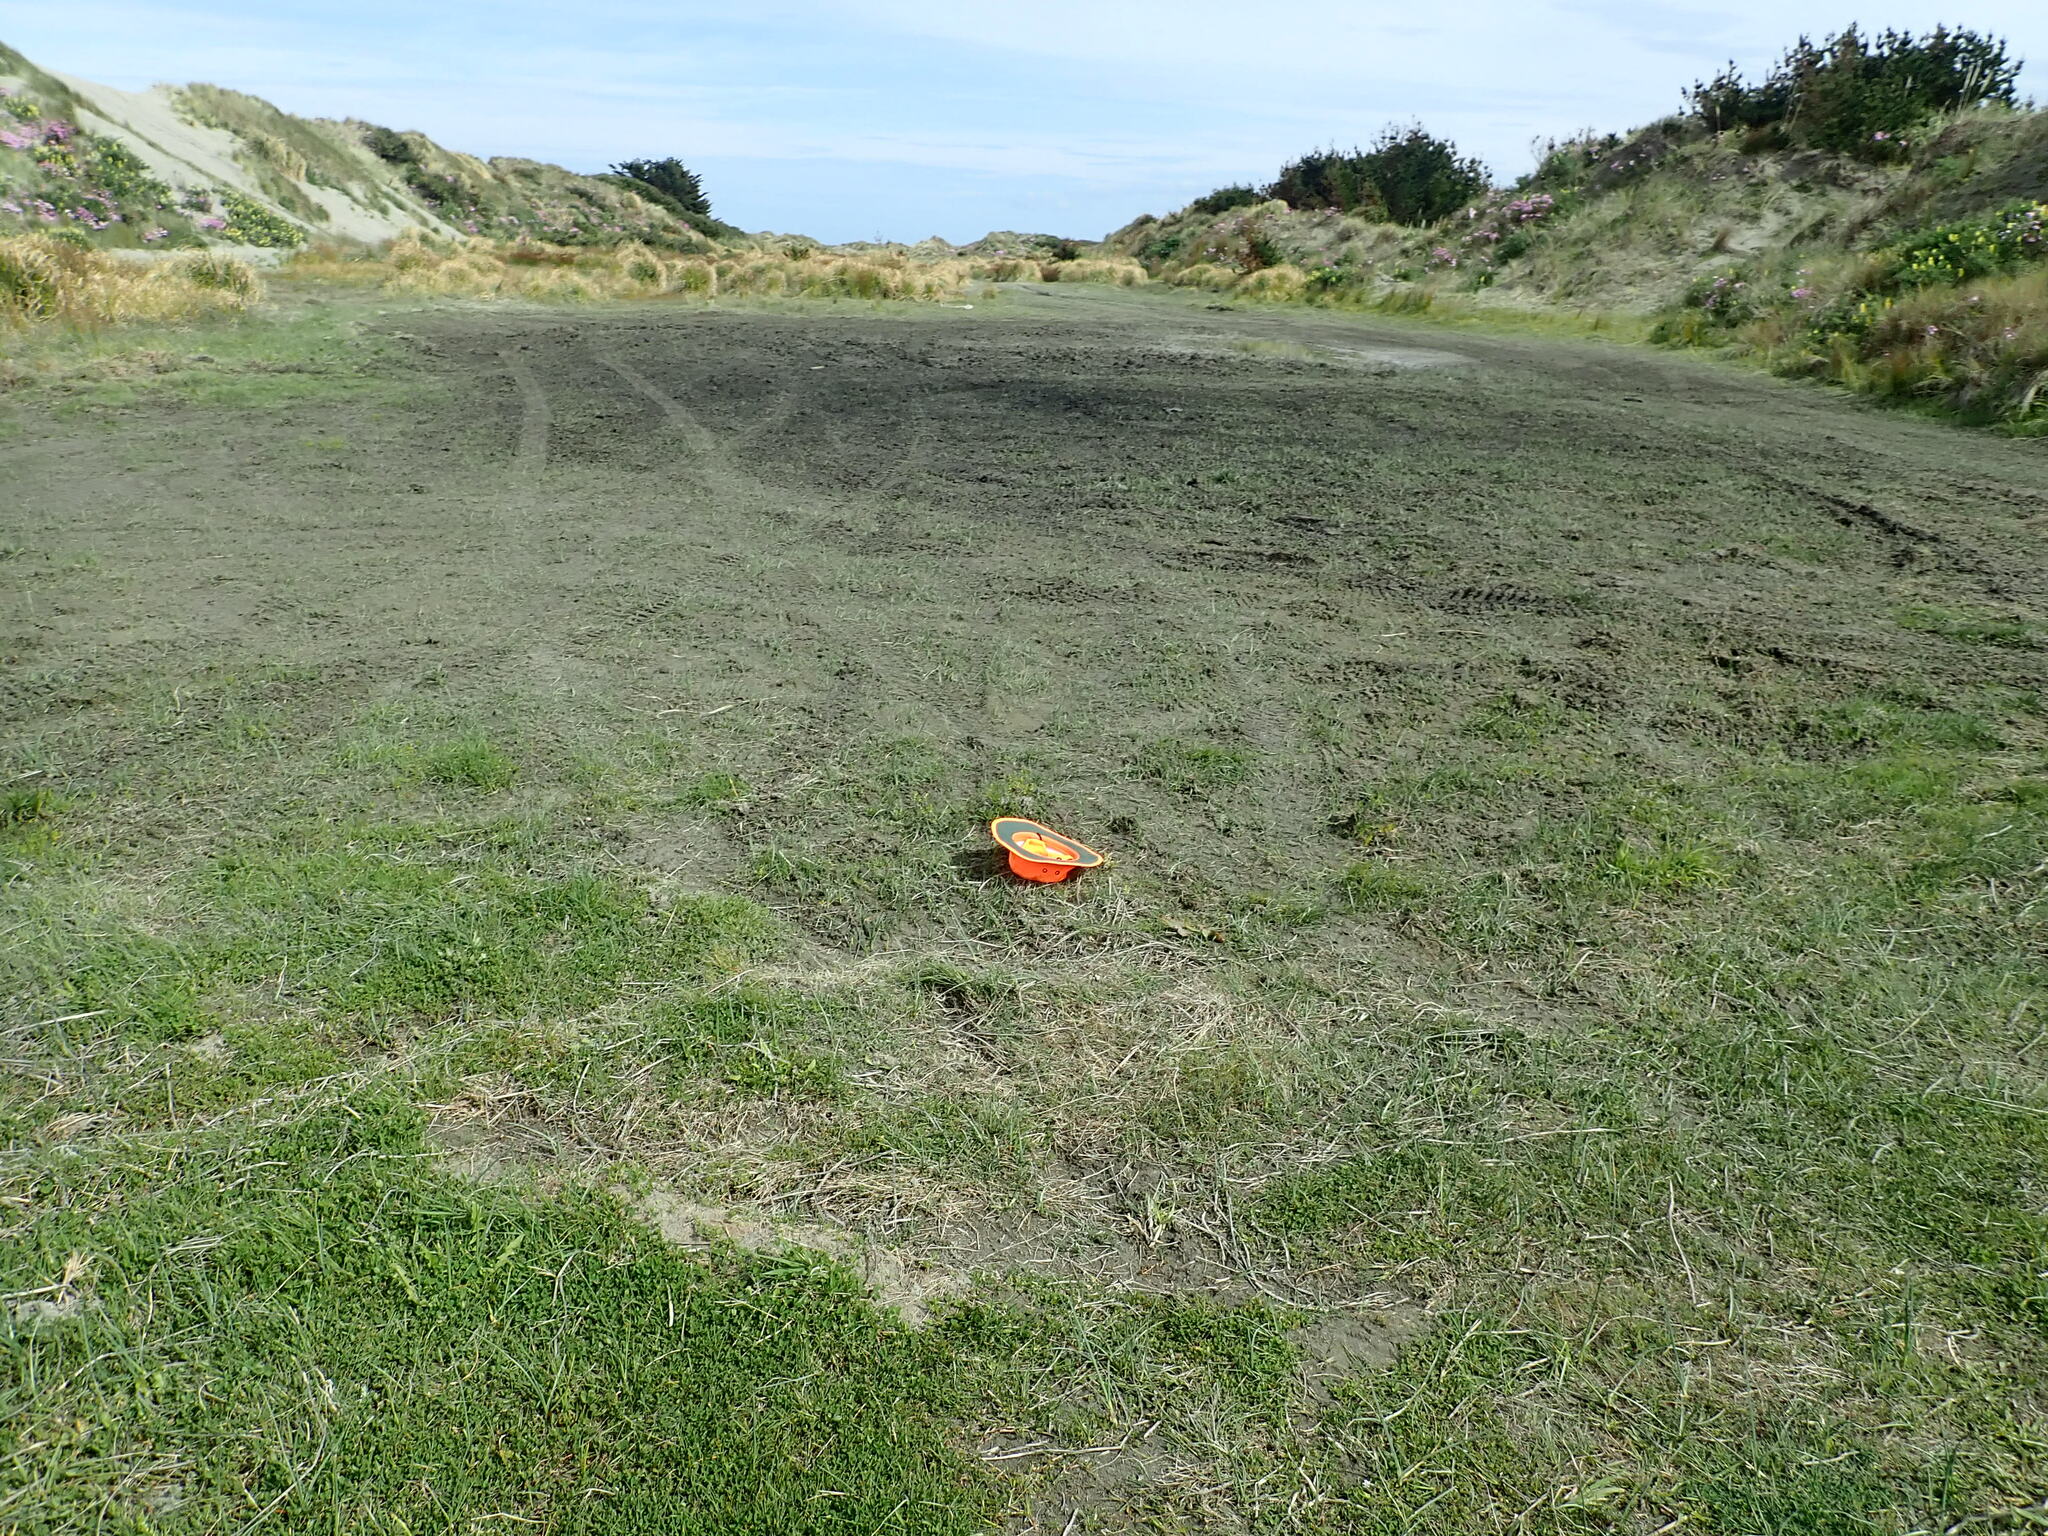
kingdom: Plantae
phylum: Tracheophyta
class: Magnoliopsida
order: Apiales
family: Apiaceae
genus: Helosciadium
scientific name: Helosciadium nodiflorum
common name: Fool's-watercress
